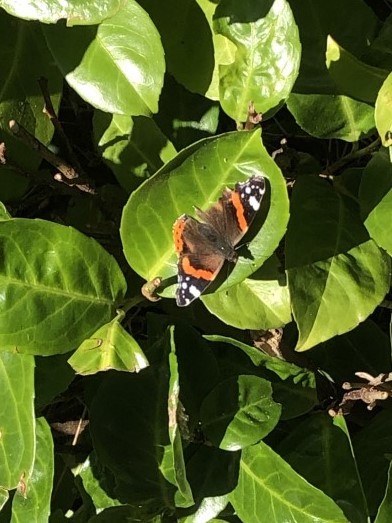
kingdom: Animalia
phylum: Arthropoda
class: Insecta
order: Lepidoptera
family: Nymphalidae
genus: Vanessa
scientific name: Vanessa atalanta
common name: Red admiral
